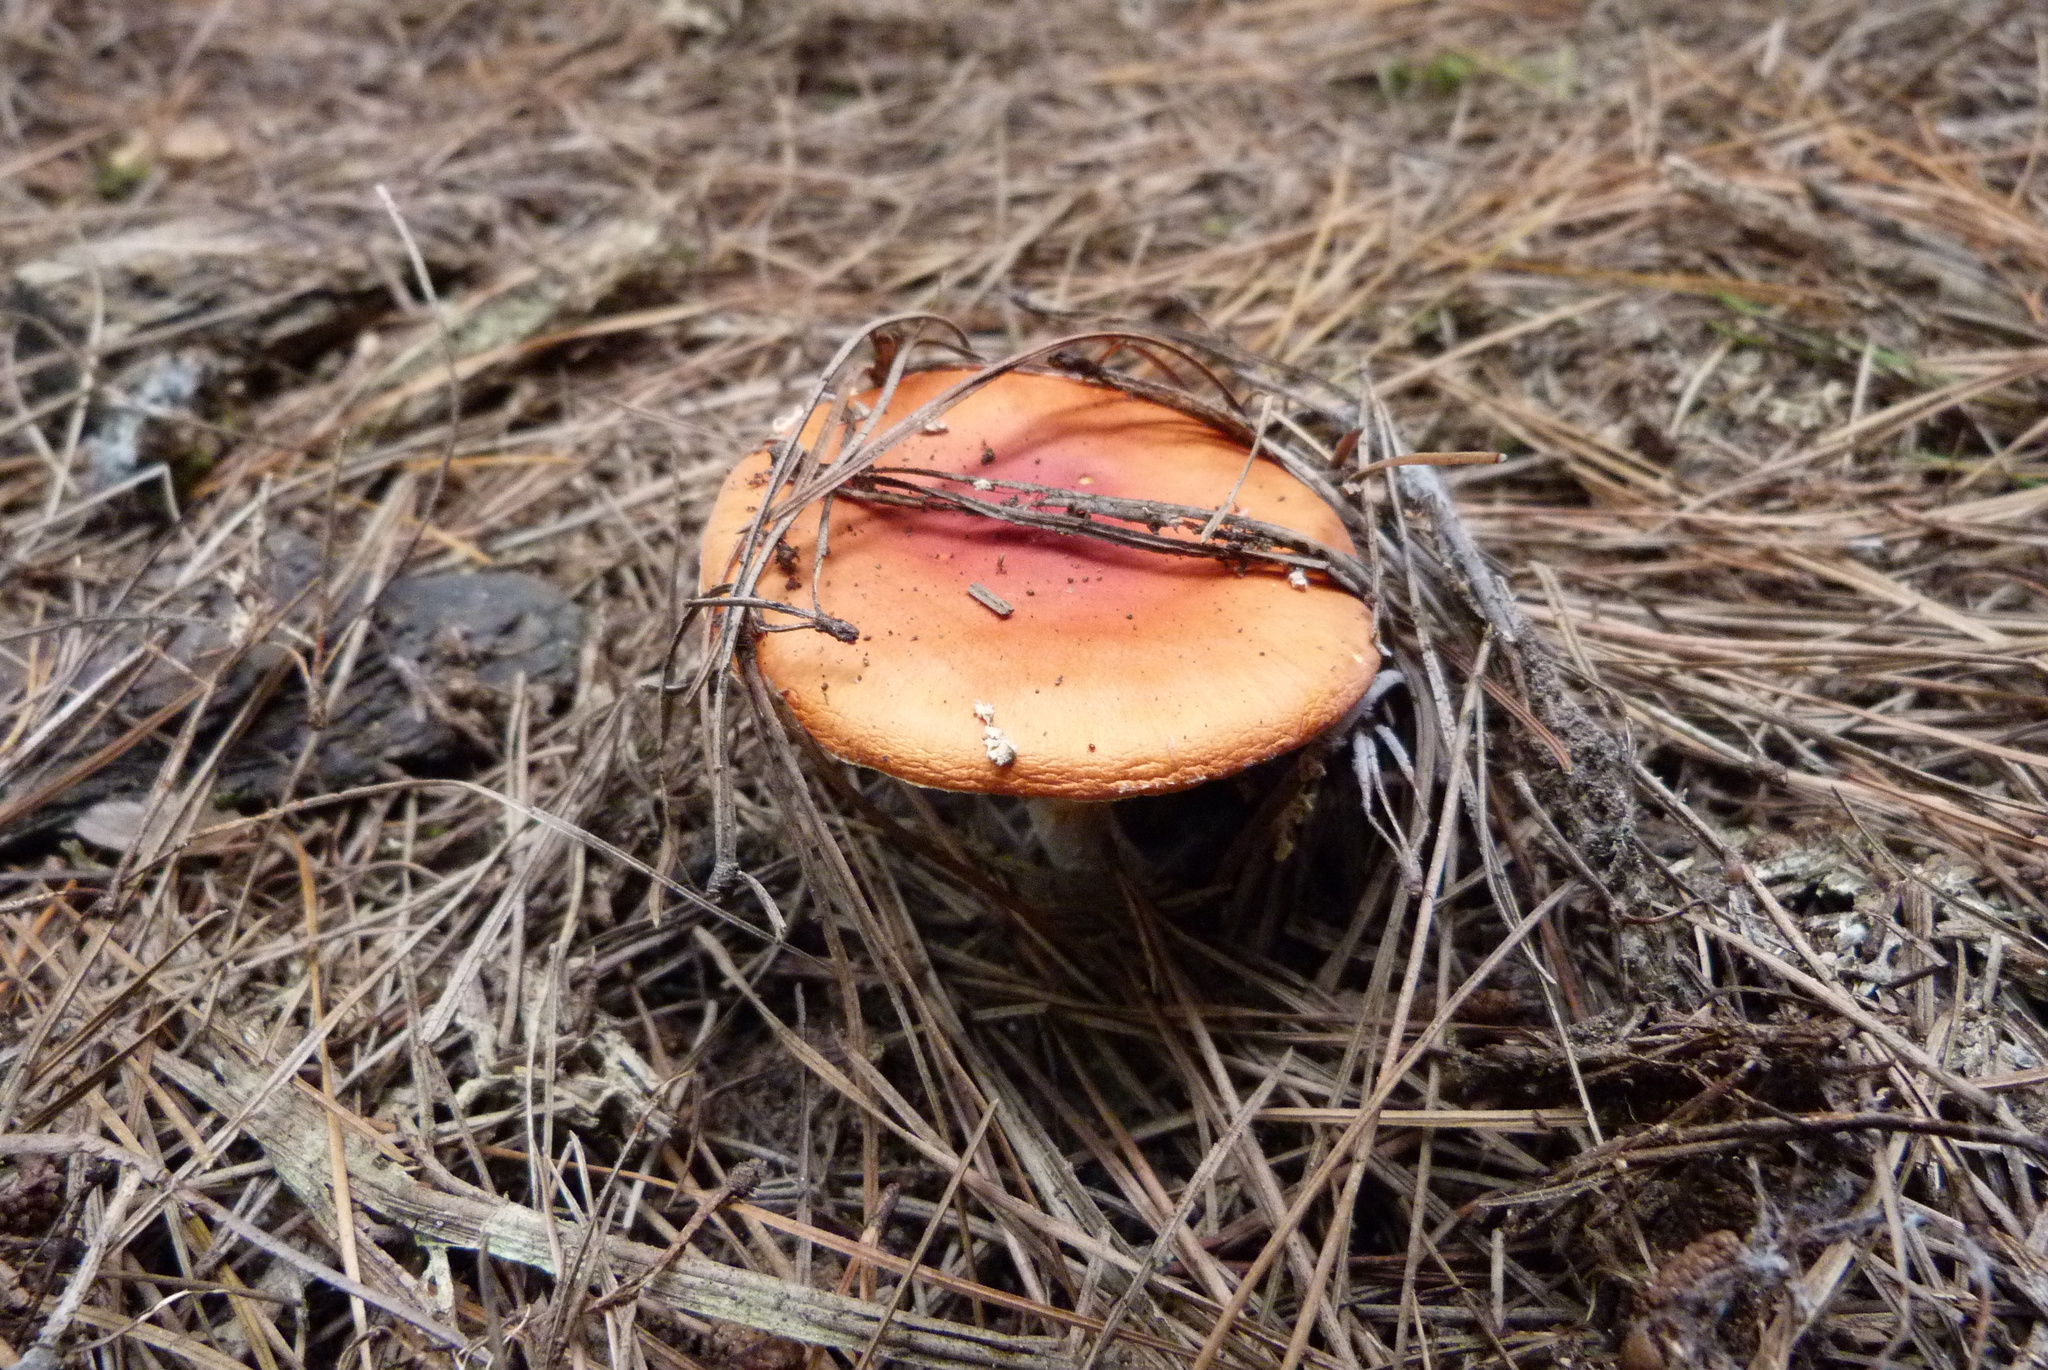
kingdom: Fungi
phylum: Basidiomycota
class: Agaricomycetes
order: Agaricales
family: Amanitaceae
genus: Amanita
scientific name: Amanita muscaria
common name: Fly agaric
